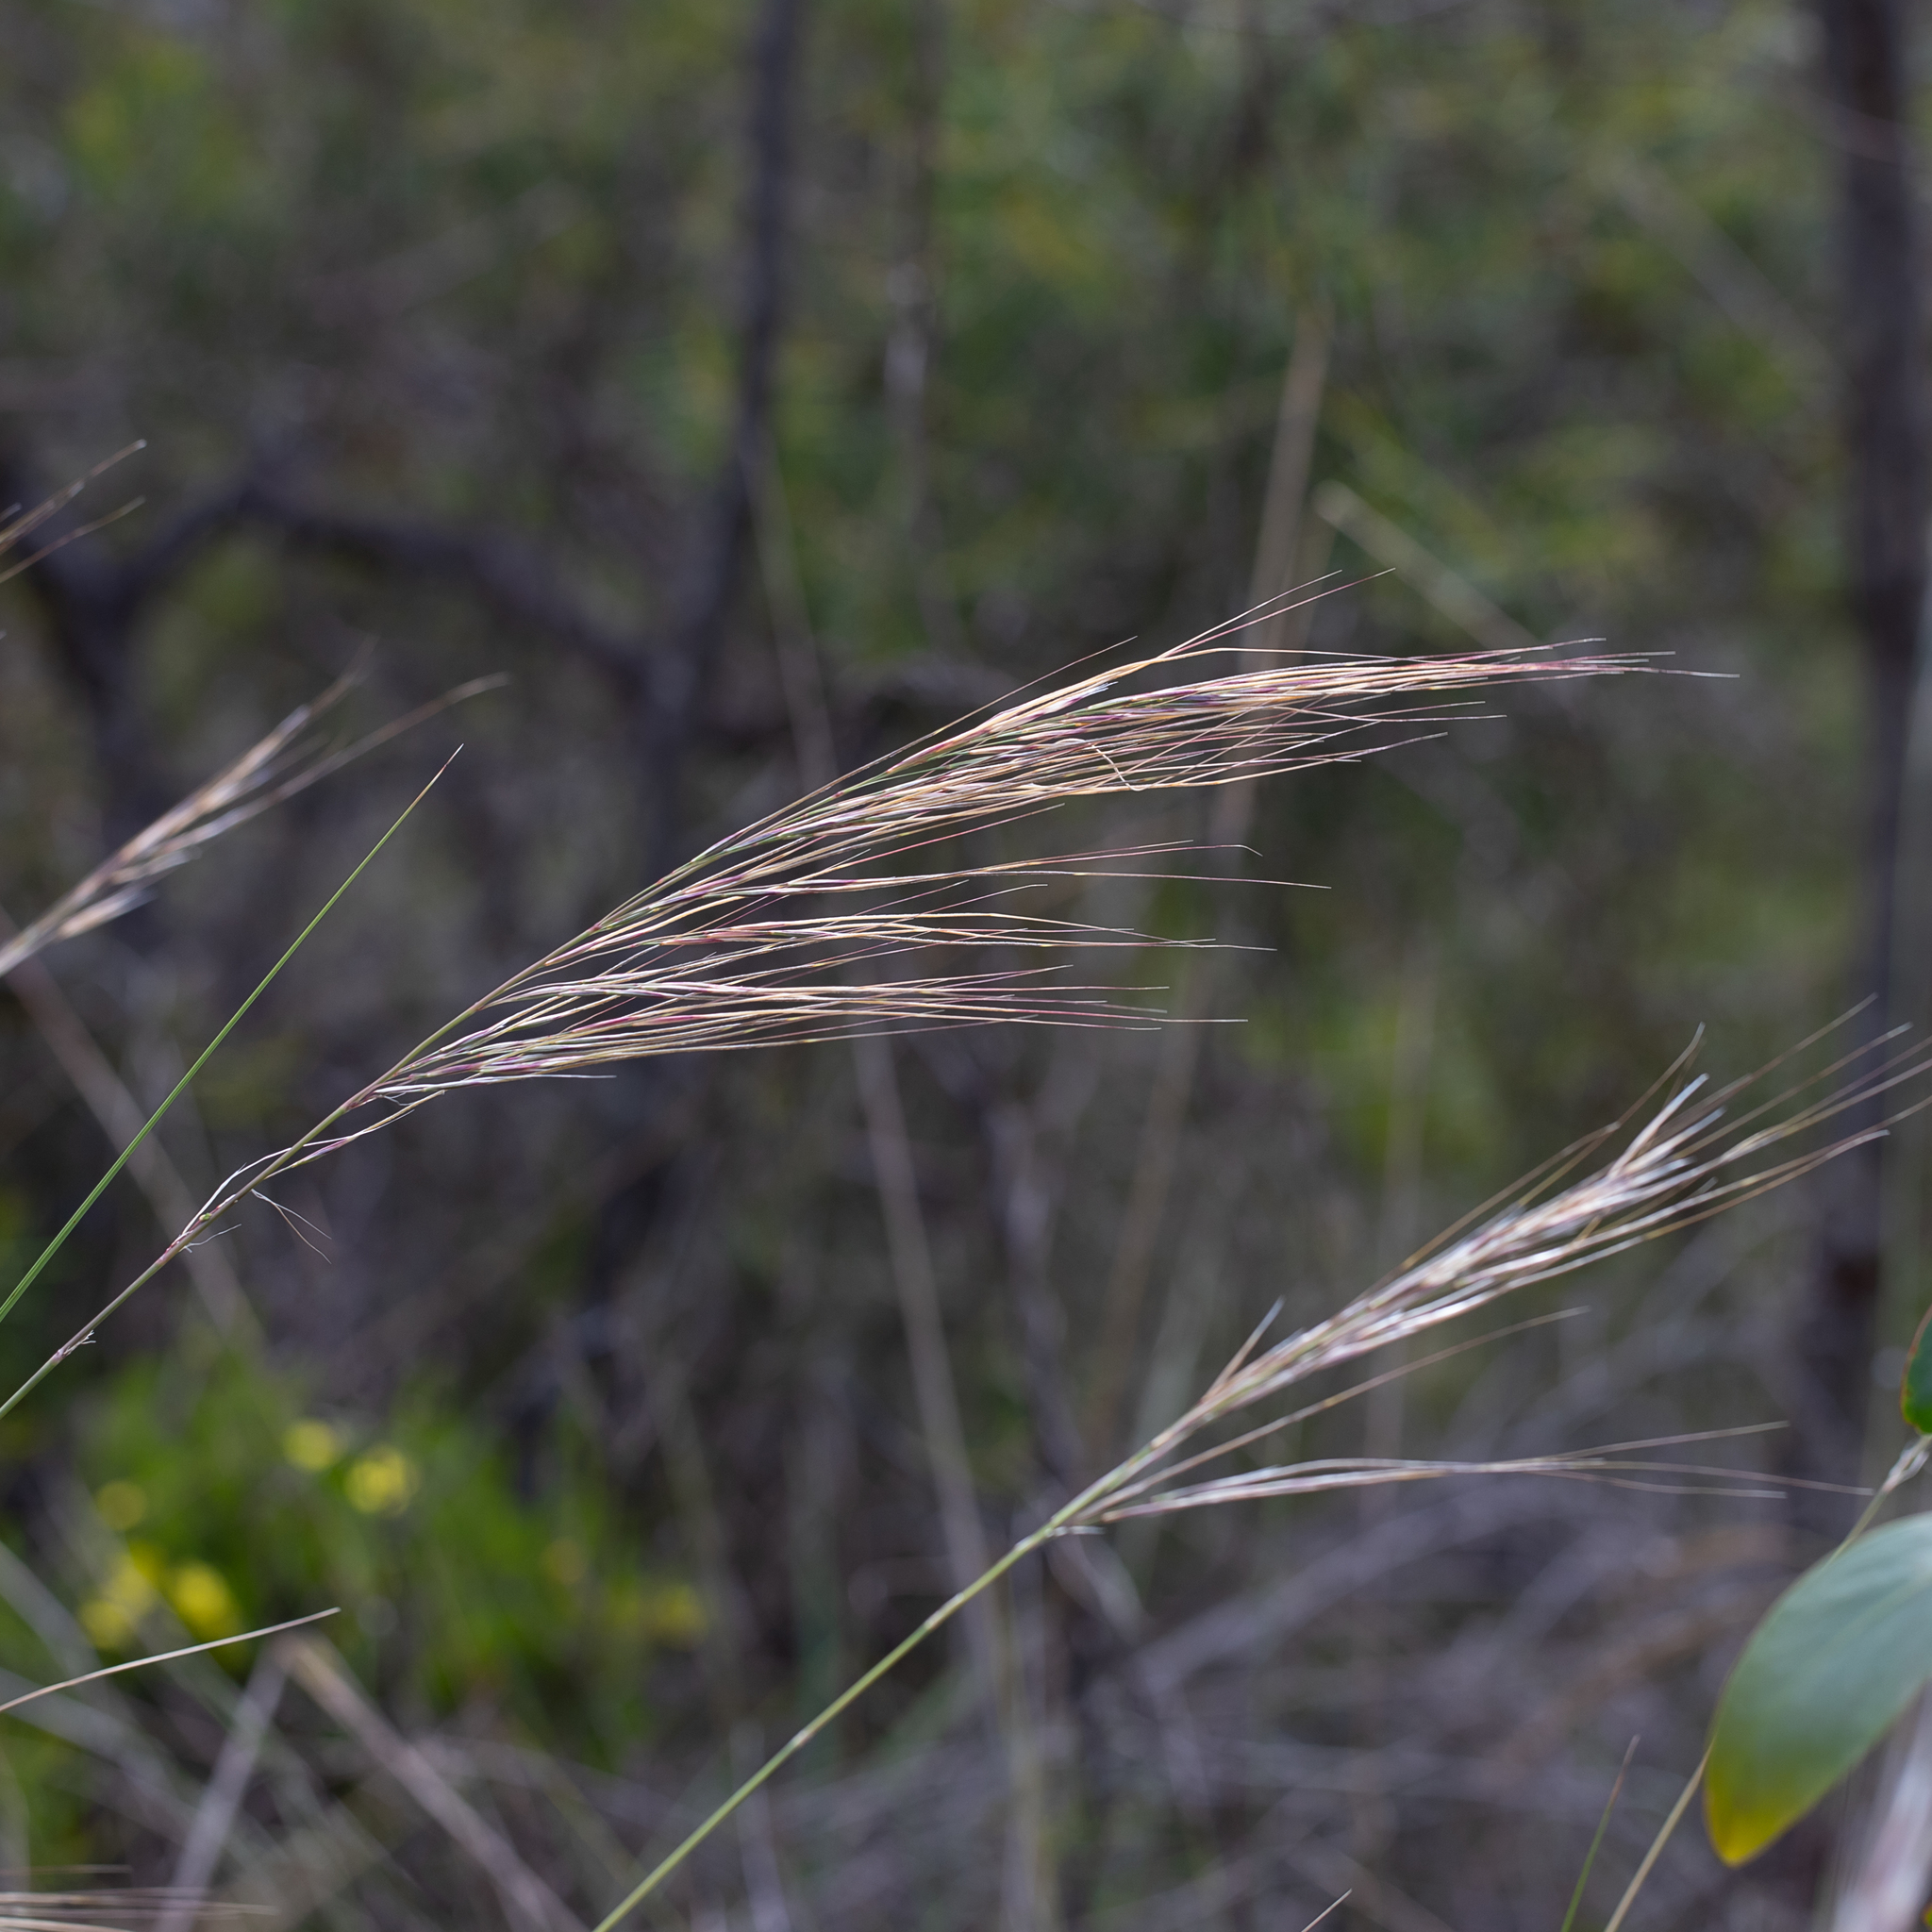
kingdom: Plantae
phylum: Tracheophyta
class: Liliopsida
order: Poales
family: Poaceae
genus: Austrostipa
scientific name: Austrostipa semibarbata
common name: Fibrous spear grass
